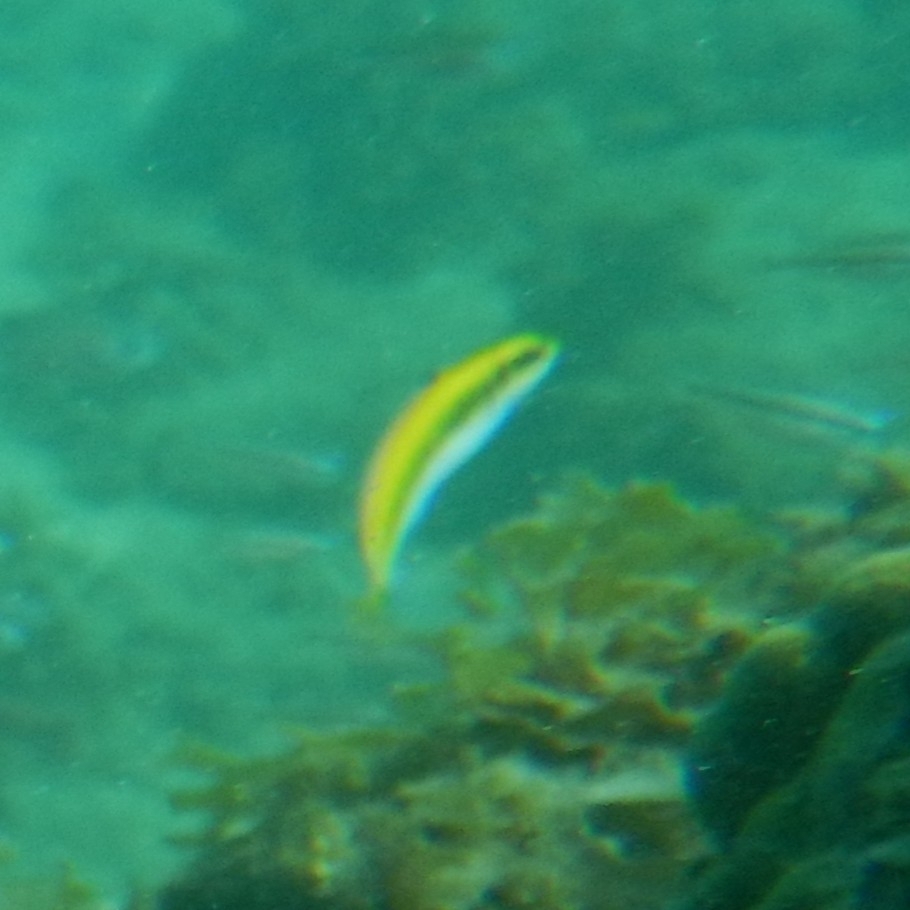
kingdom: Animalia
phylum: Chordata
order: Perciformes
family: Labridae
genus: Thalassoma
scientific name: Thalassoma bifasciatum
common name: Bluehead wrasse
